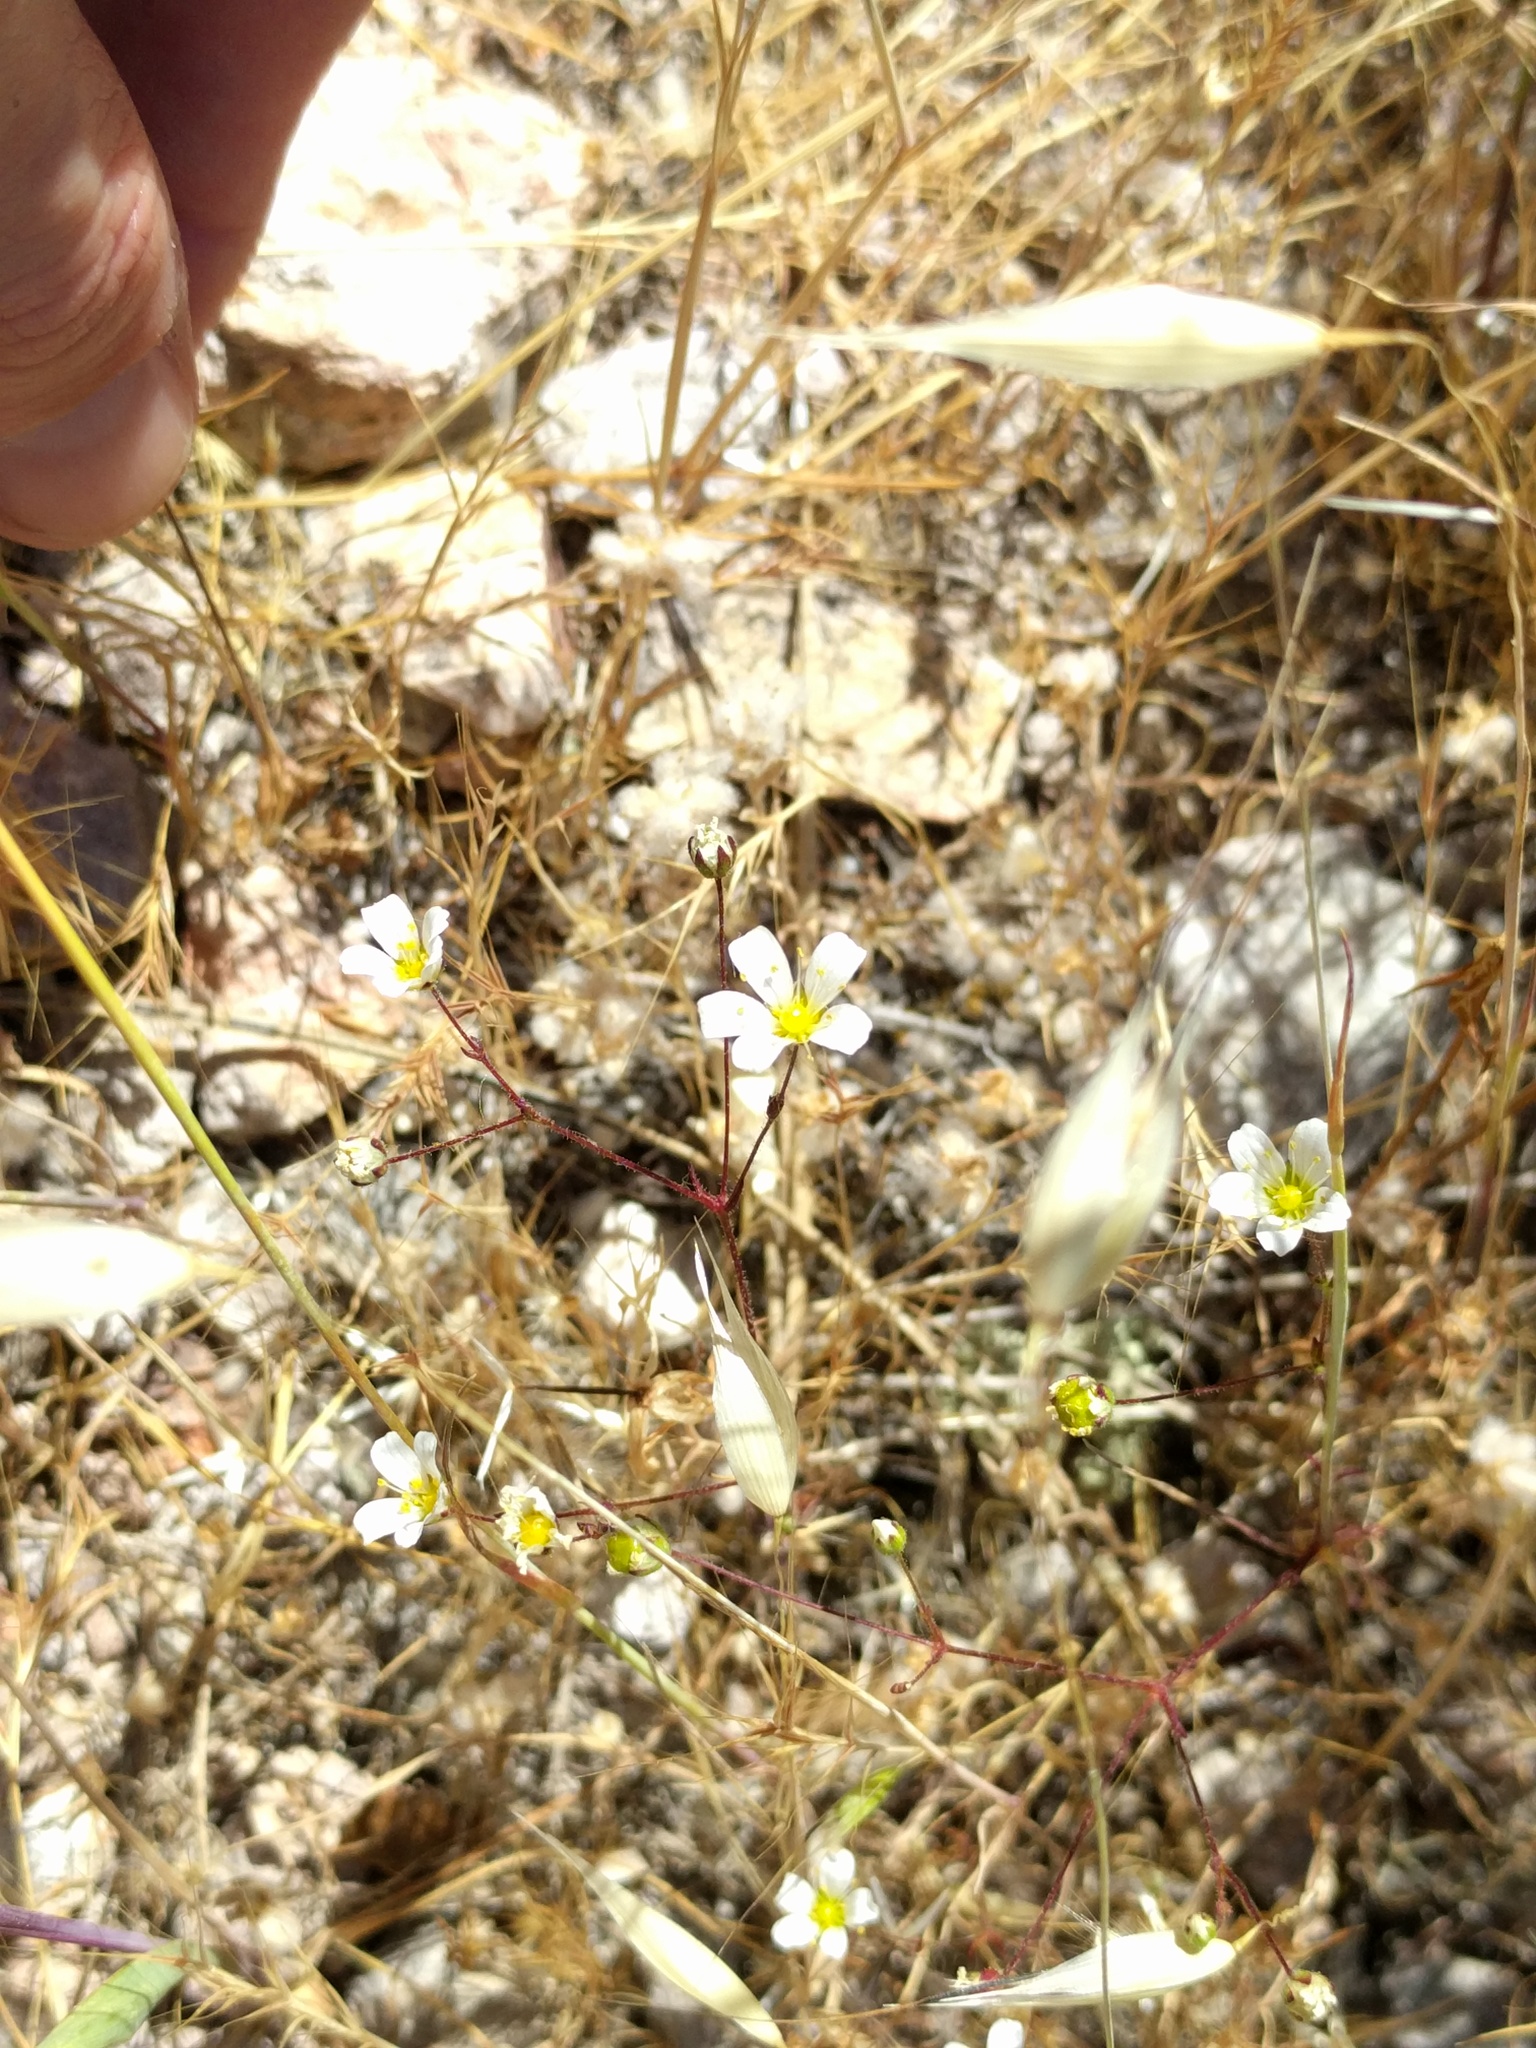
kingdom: Plantae
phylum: Tracheophyta
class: Magnoliopsida
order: Caryophyllales
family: Caryophyllaceae
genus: Sabulina
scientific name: Sabulina douglasii
